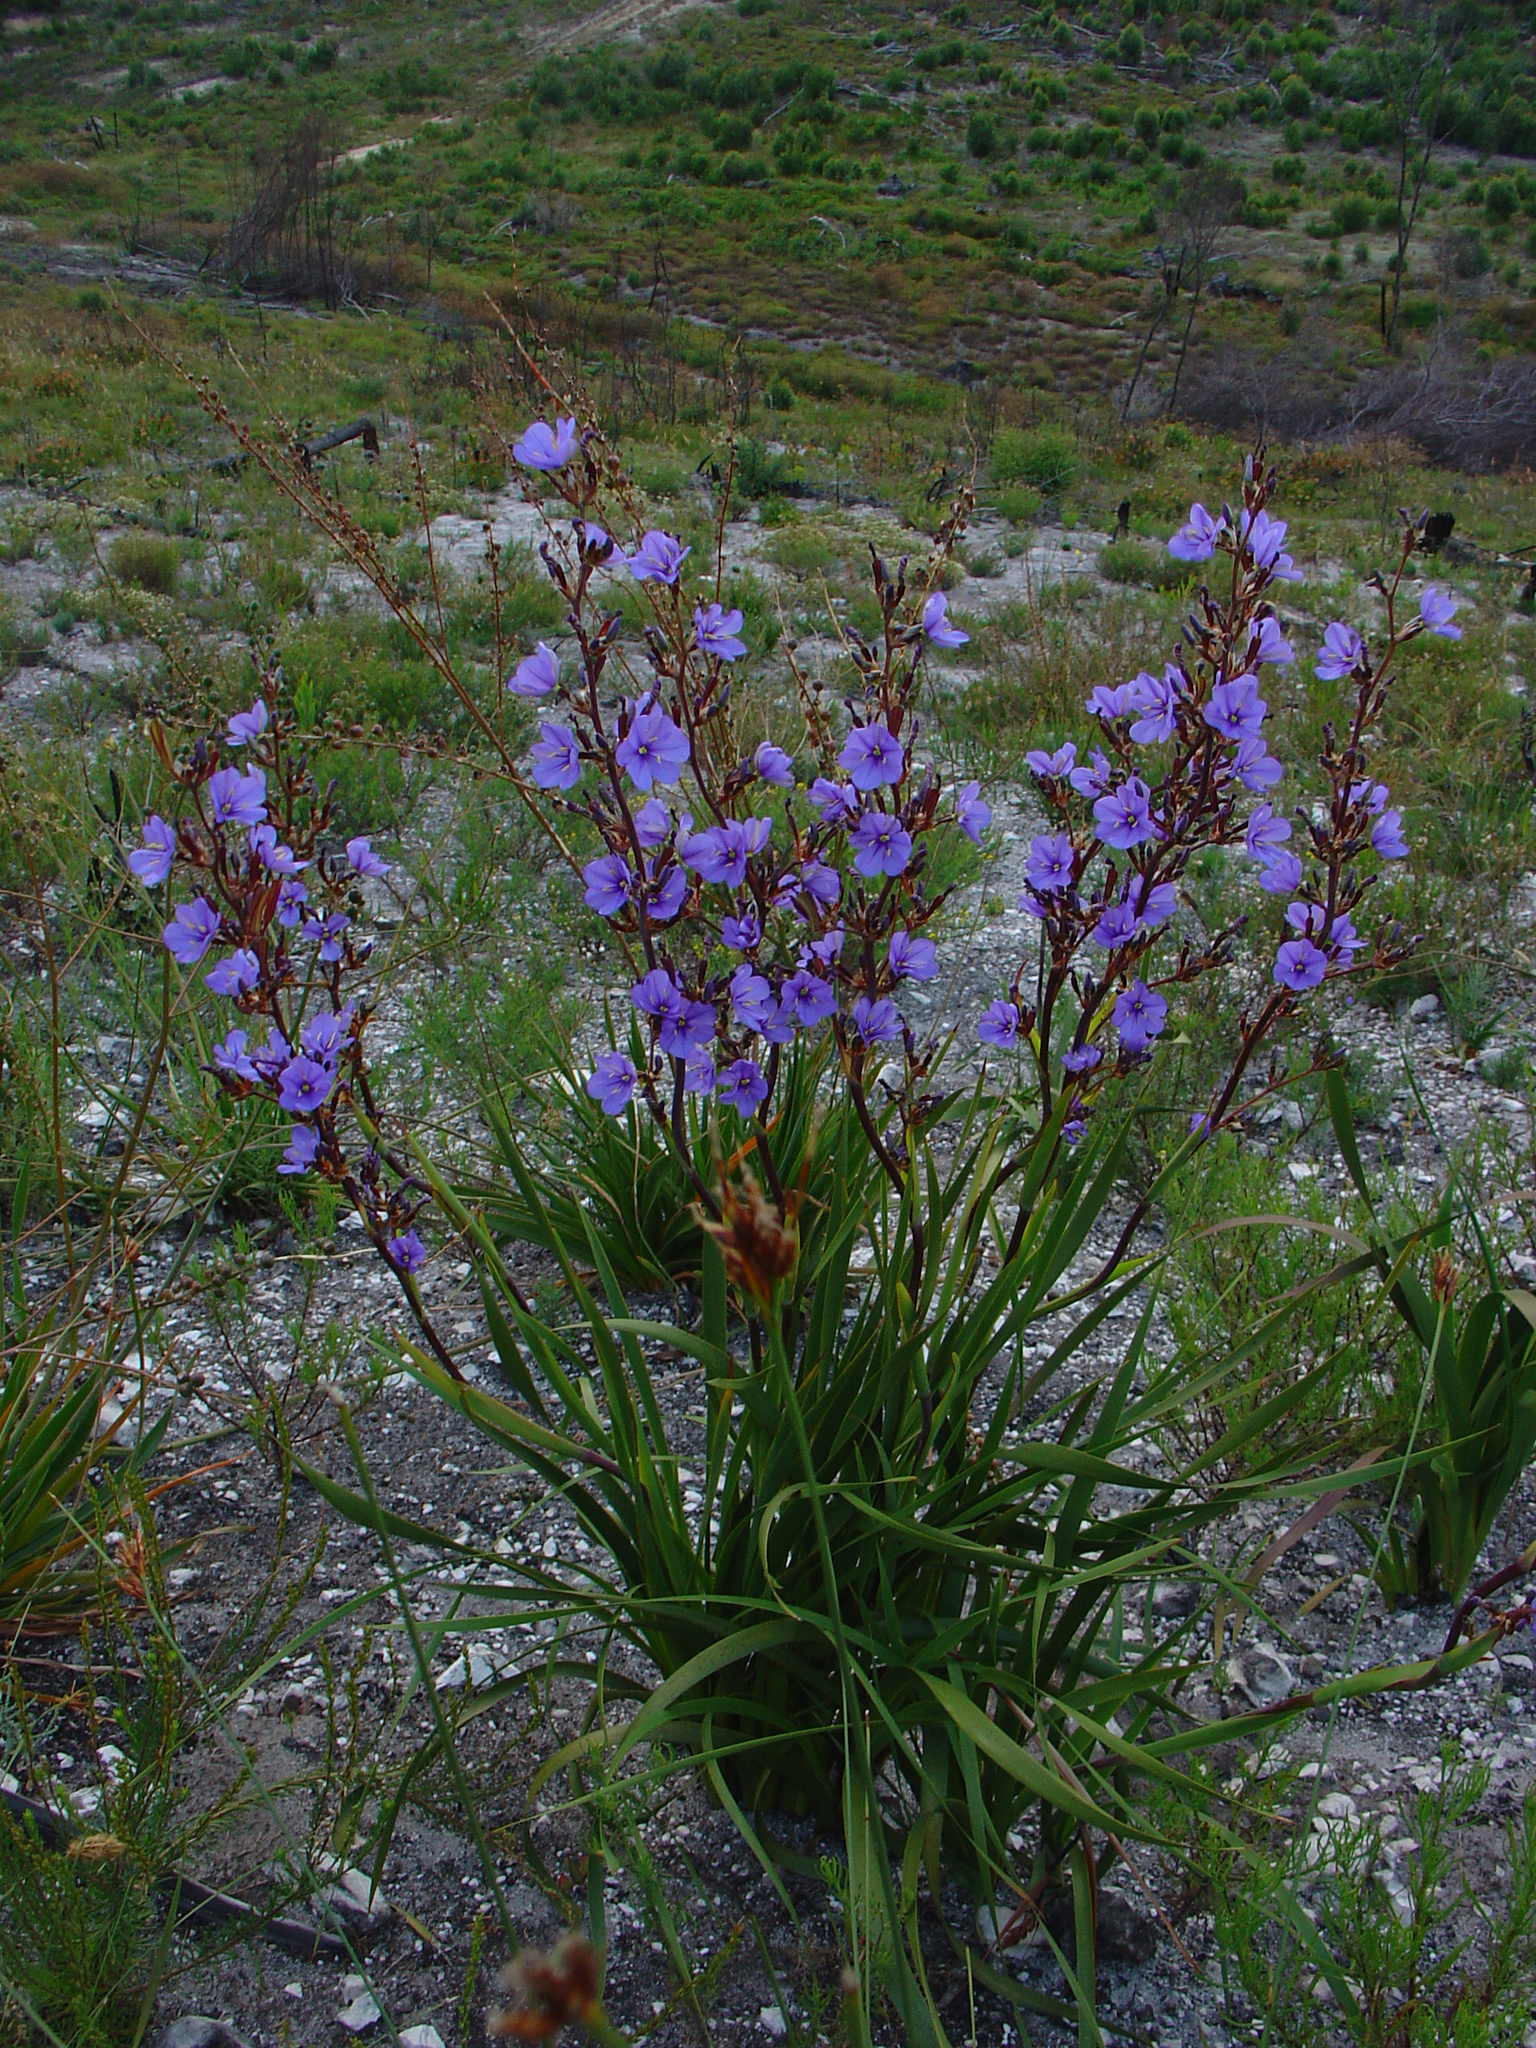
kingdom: Plantae
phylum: Tracheophyta
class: Liliopsida
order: Asparagales
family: Iridaceae
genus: Aristea
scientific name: Aristea bakeri
